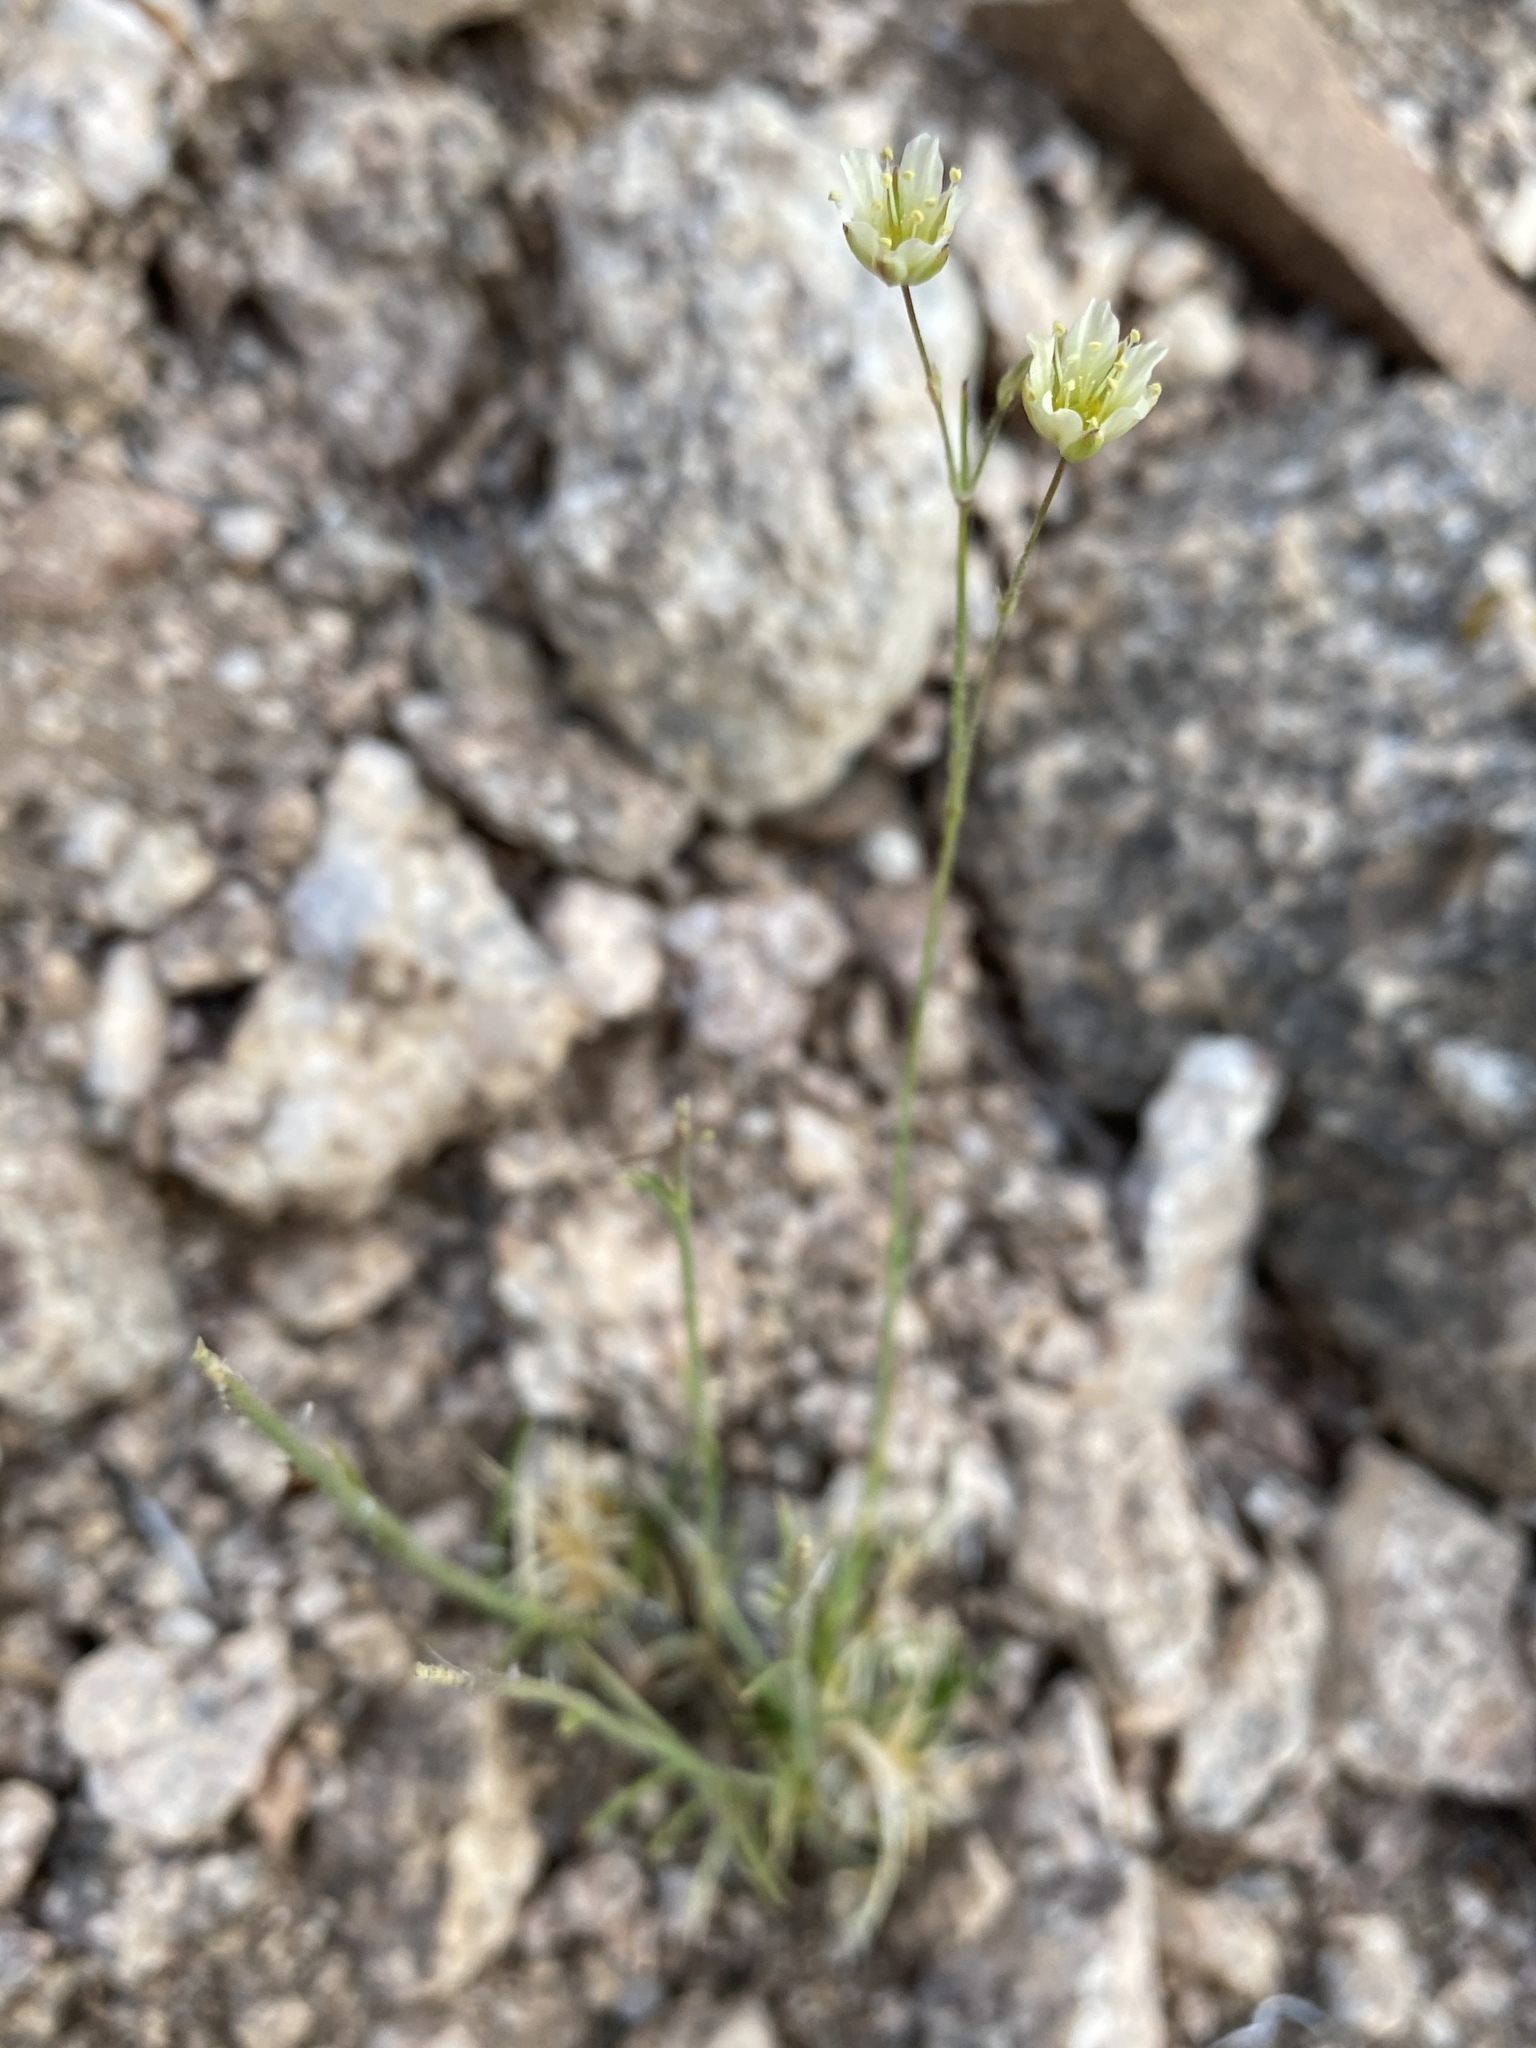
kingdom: Plantae
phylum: Tracheophyta
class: Magnoliopsida
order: Caryophyllales
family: Caryophyllaceae
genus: Eremogone
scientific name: Eremogone macradenia
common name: Mohave sandwort
